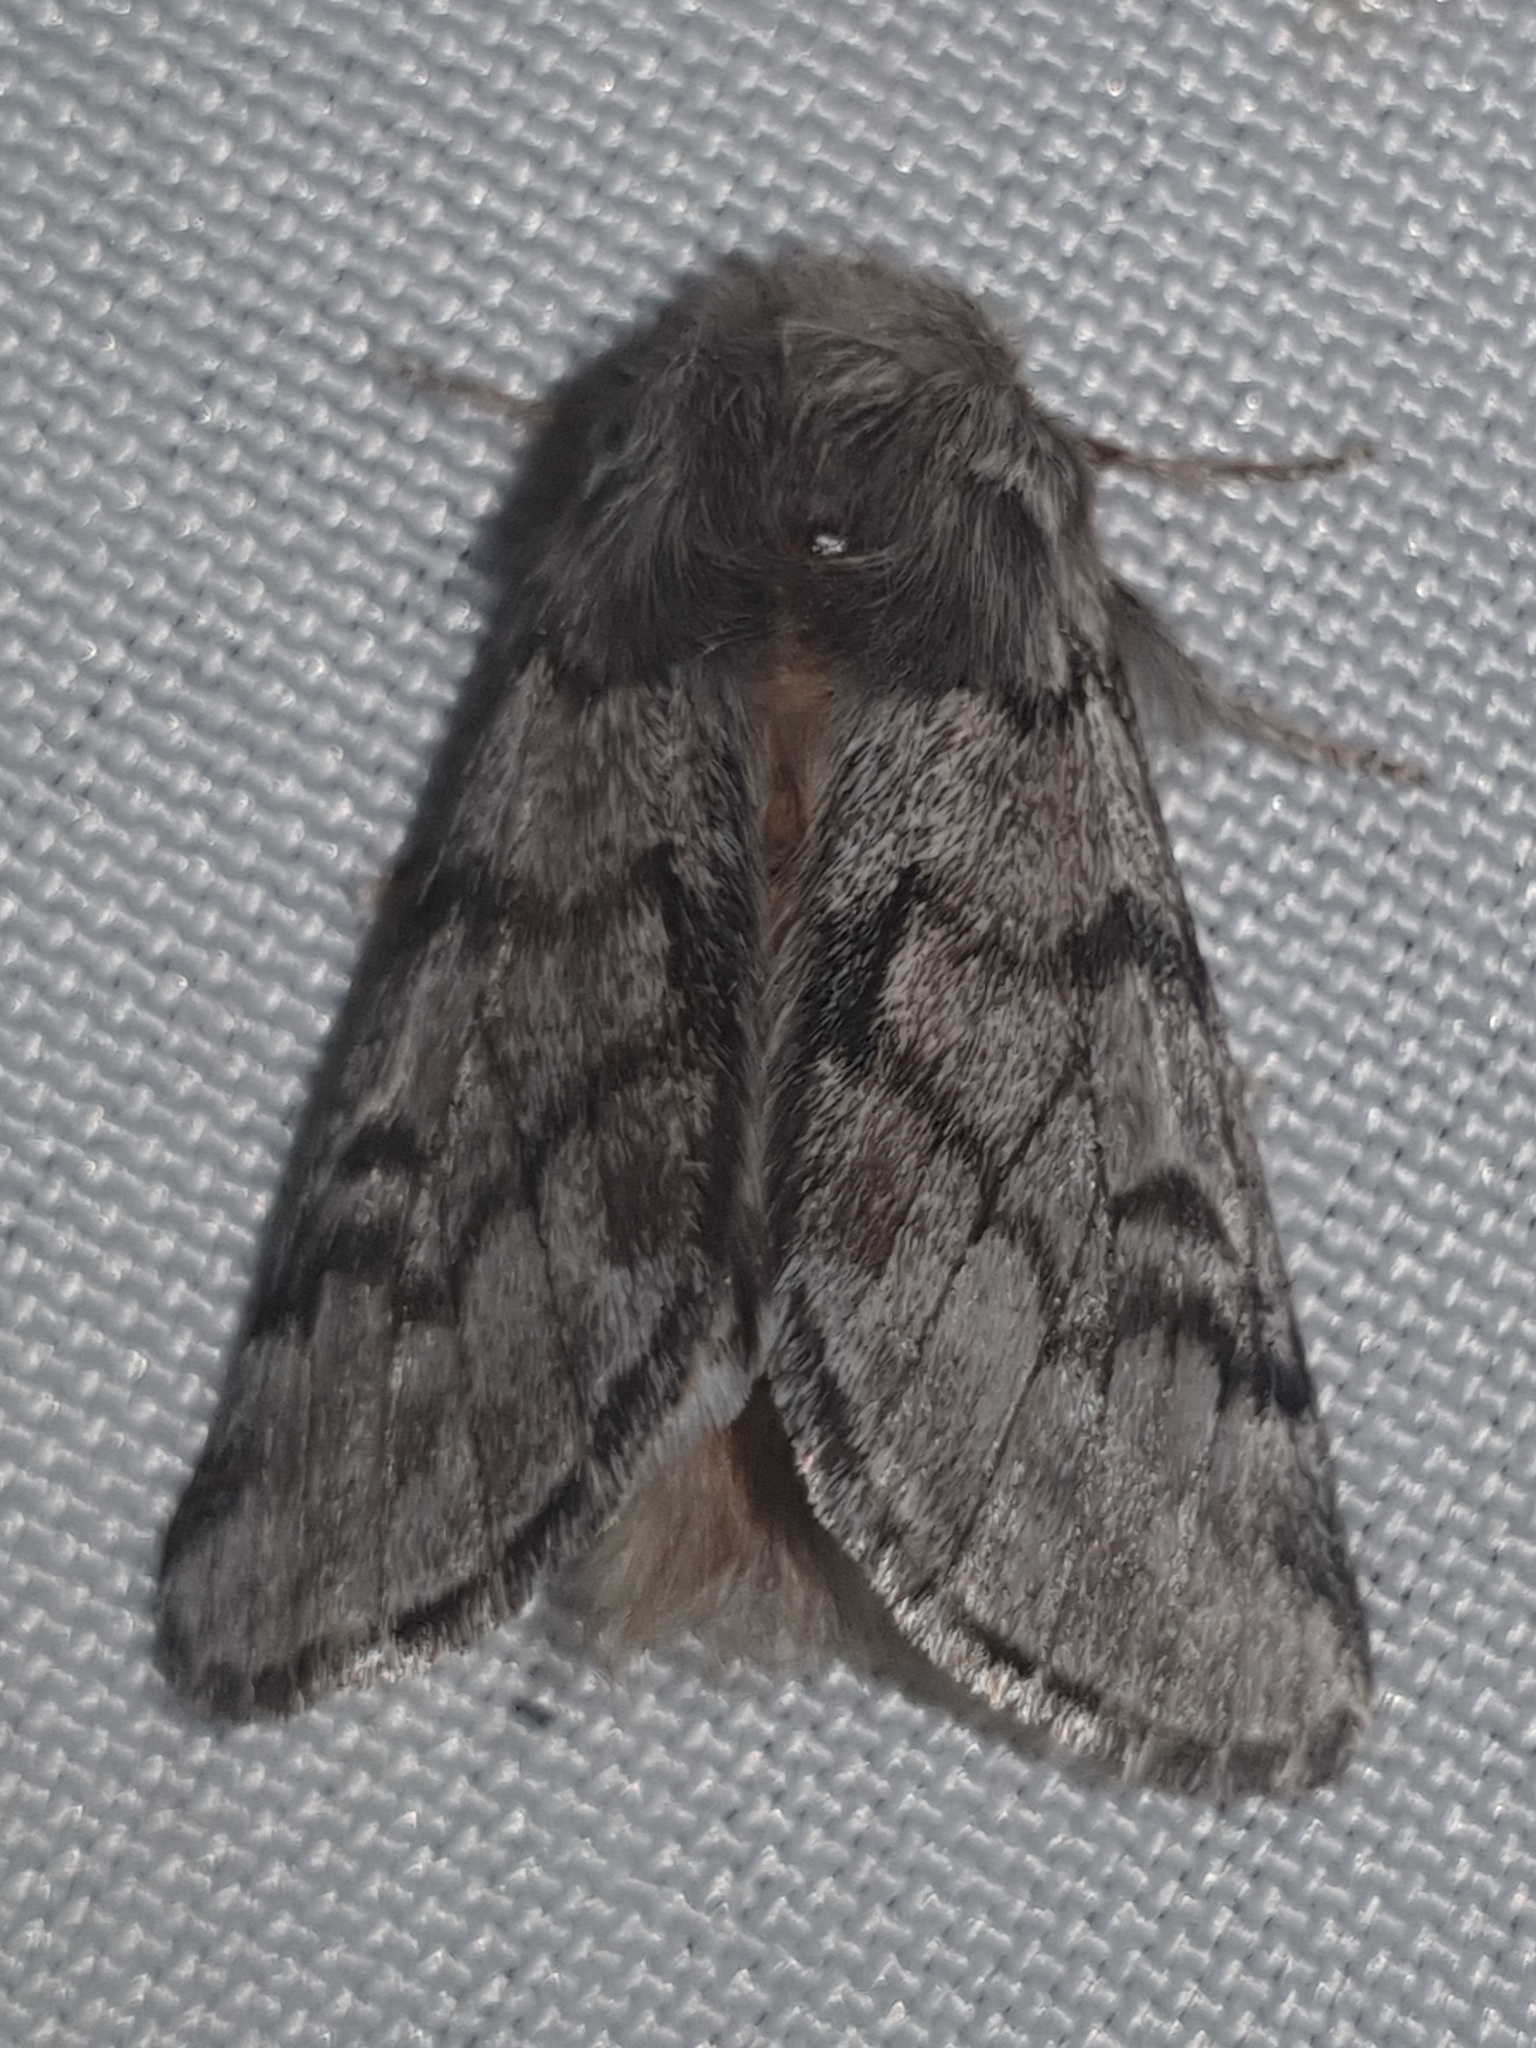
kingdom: Animalia
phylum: Arthropoda
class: Insecta
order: Lepidoptera
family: Notodontidae
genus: Thaumetopoea
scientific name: Thaumetopoea pityocampa
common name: Pine processionary
